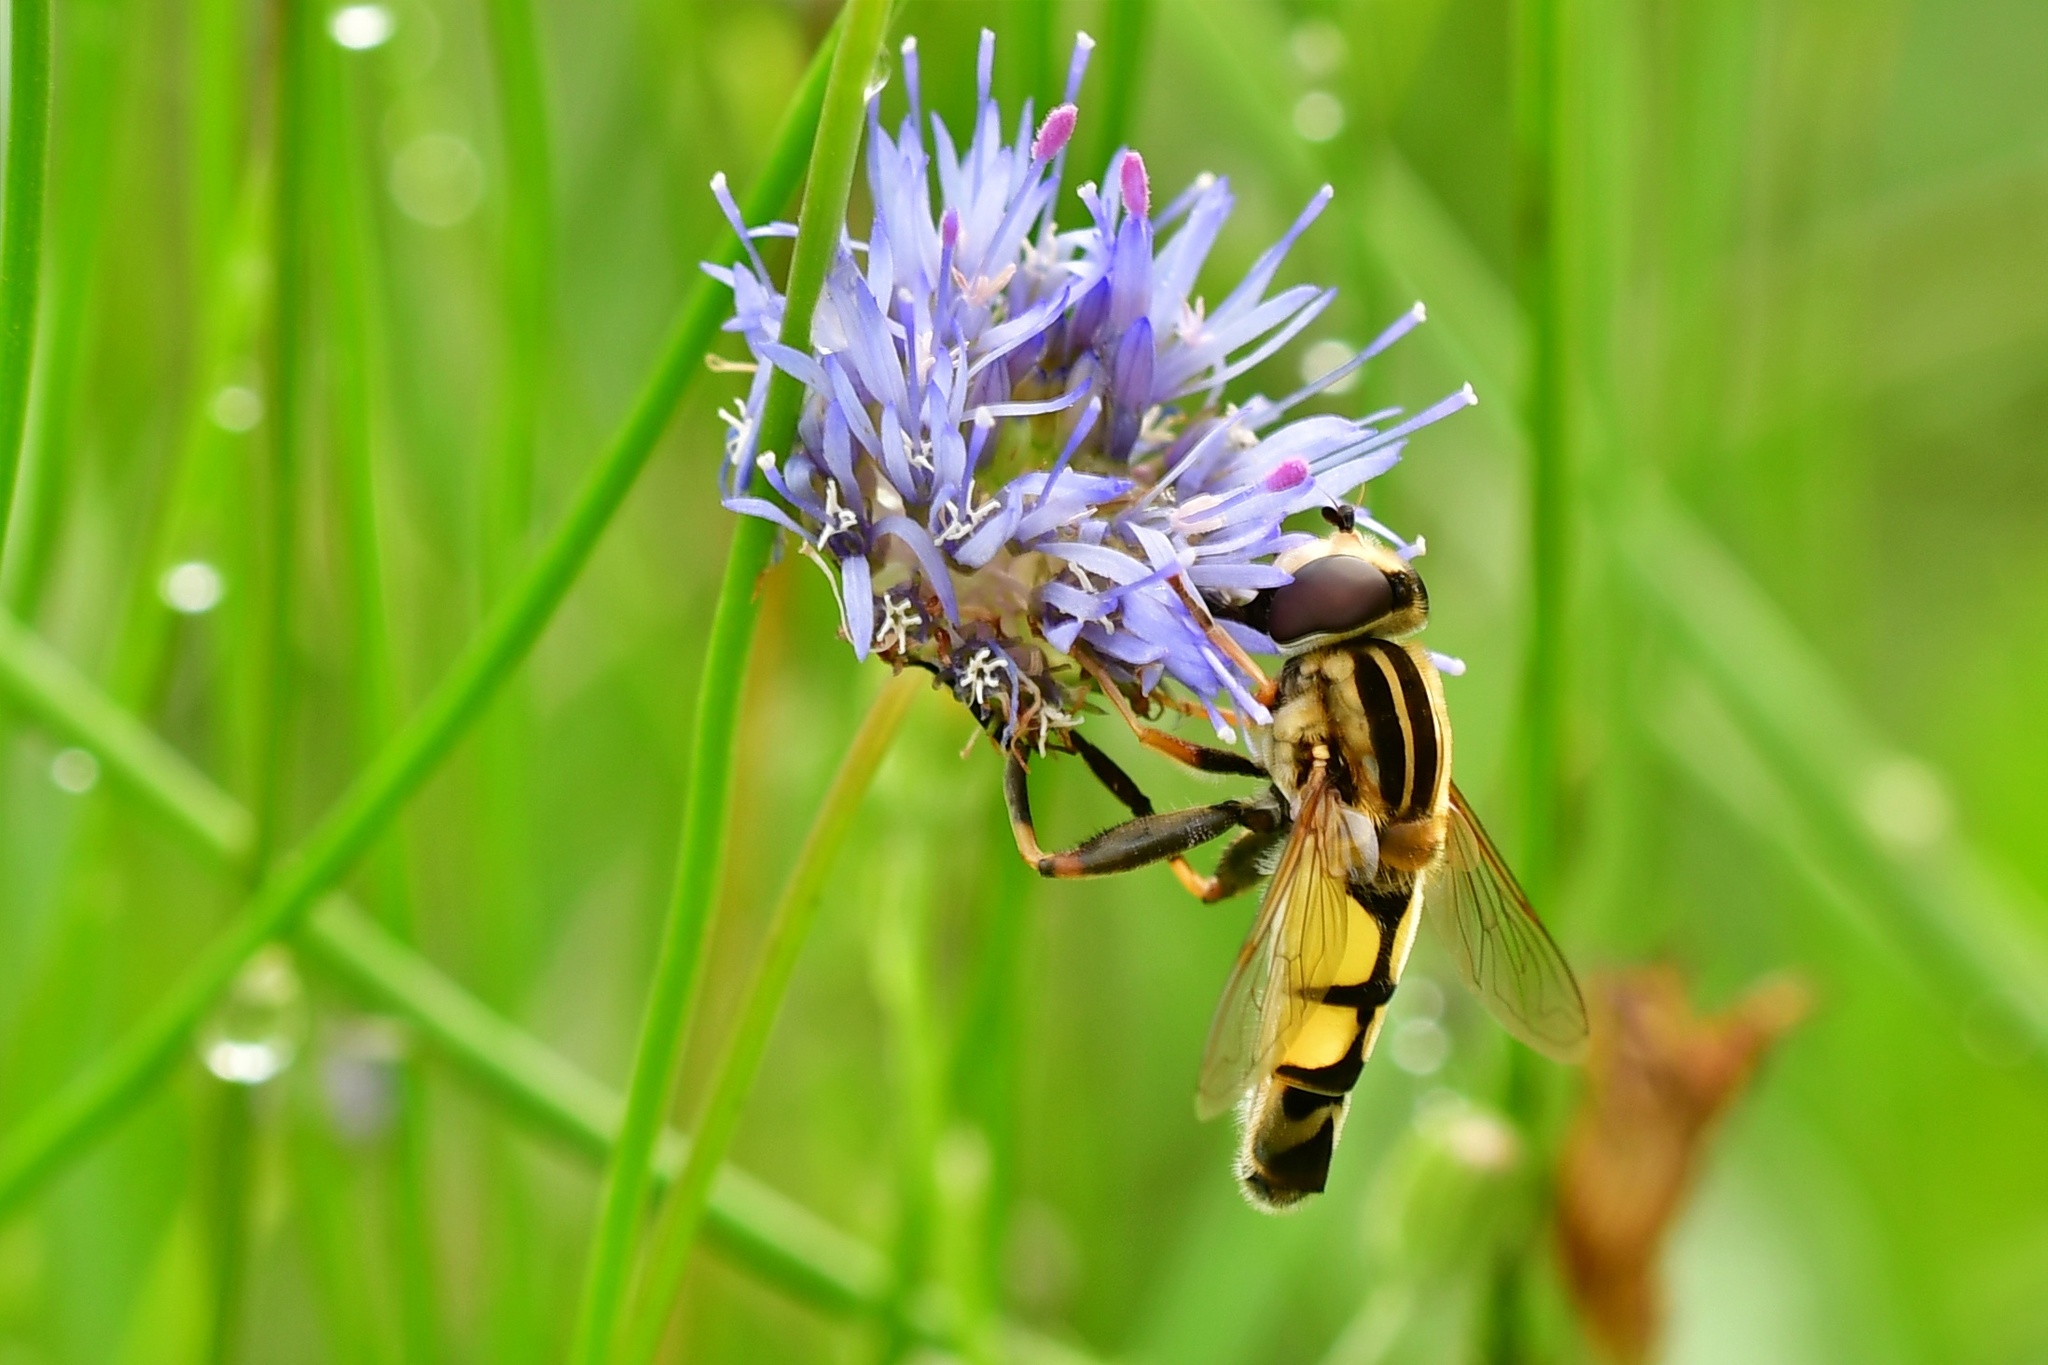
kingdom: Animalia
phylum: Arthropoda
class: Insecta
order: Diptera
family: Syrphidae
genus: Helophilus
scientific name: Helophilus trivittatus
